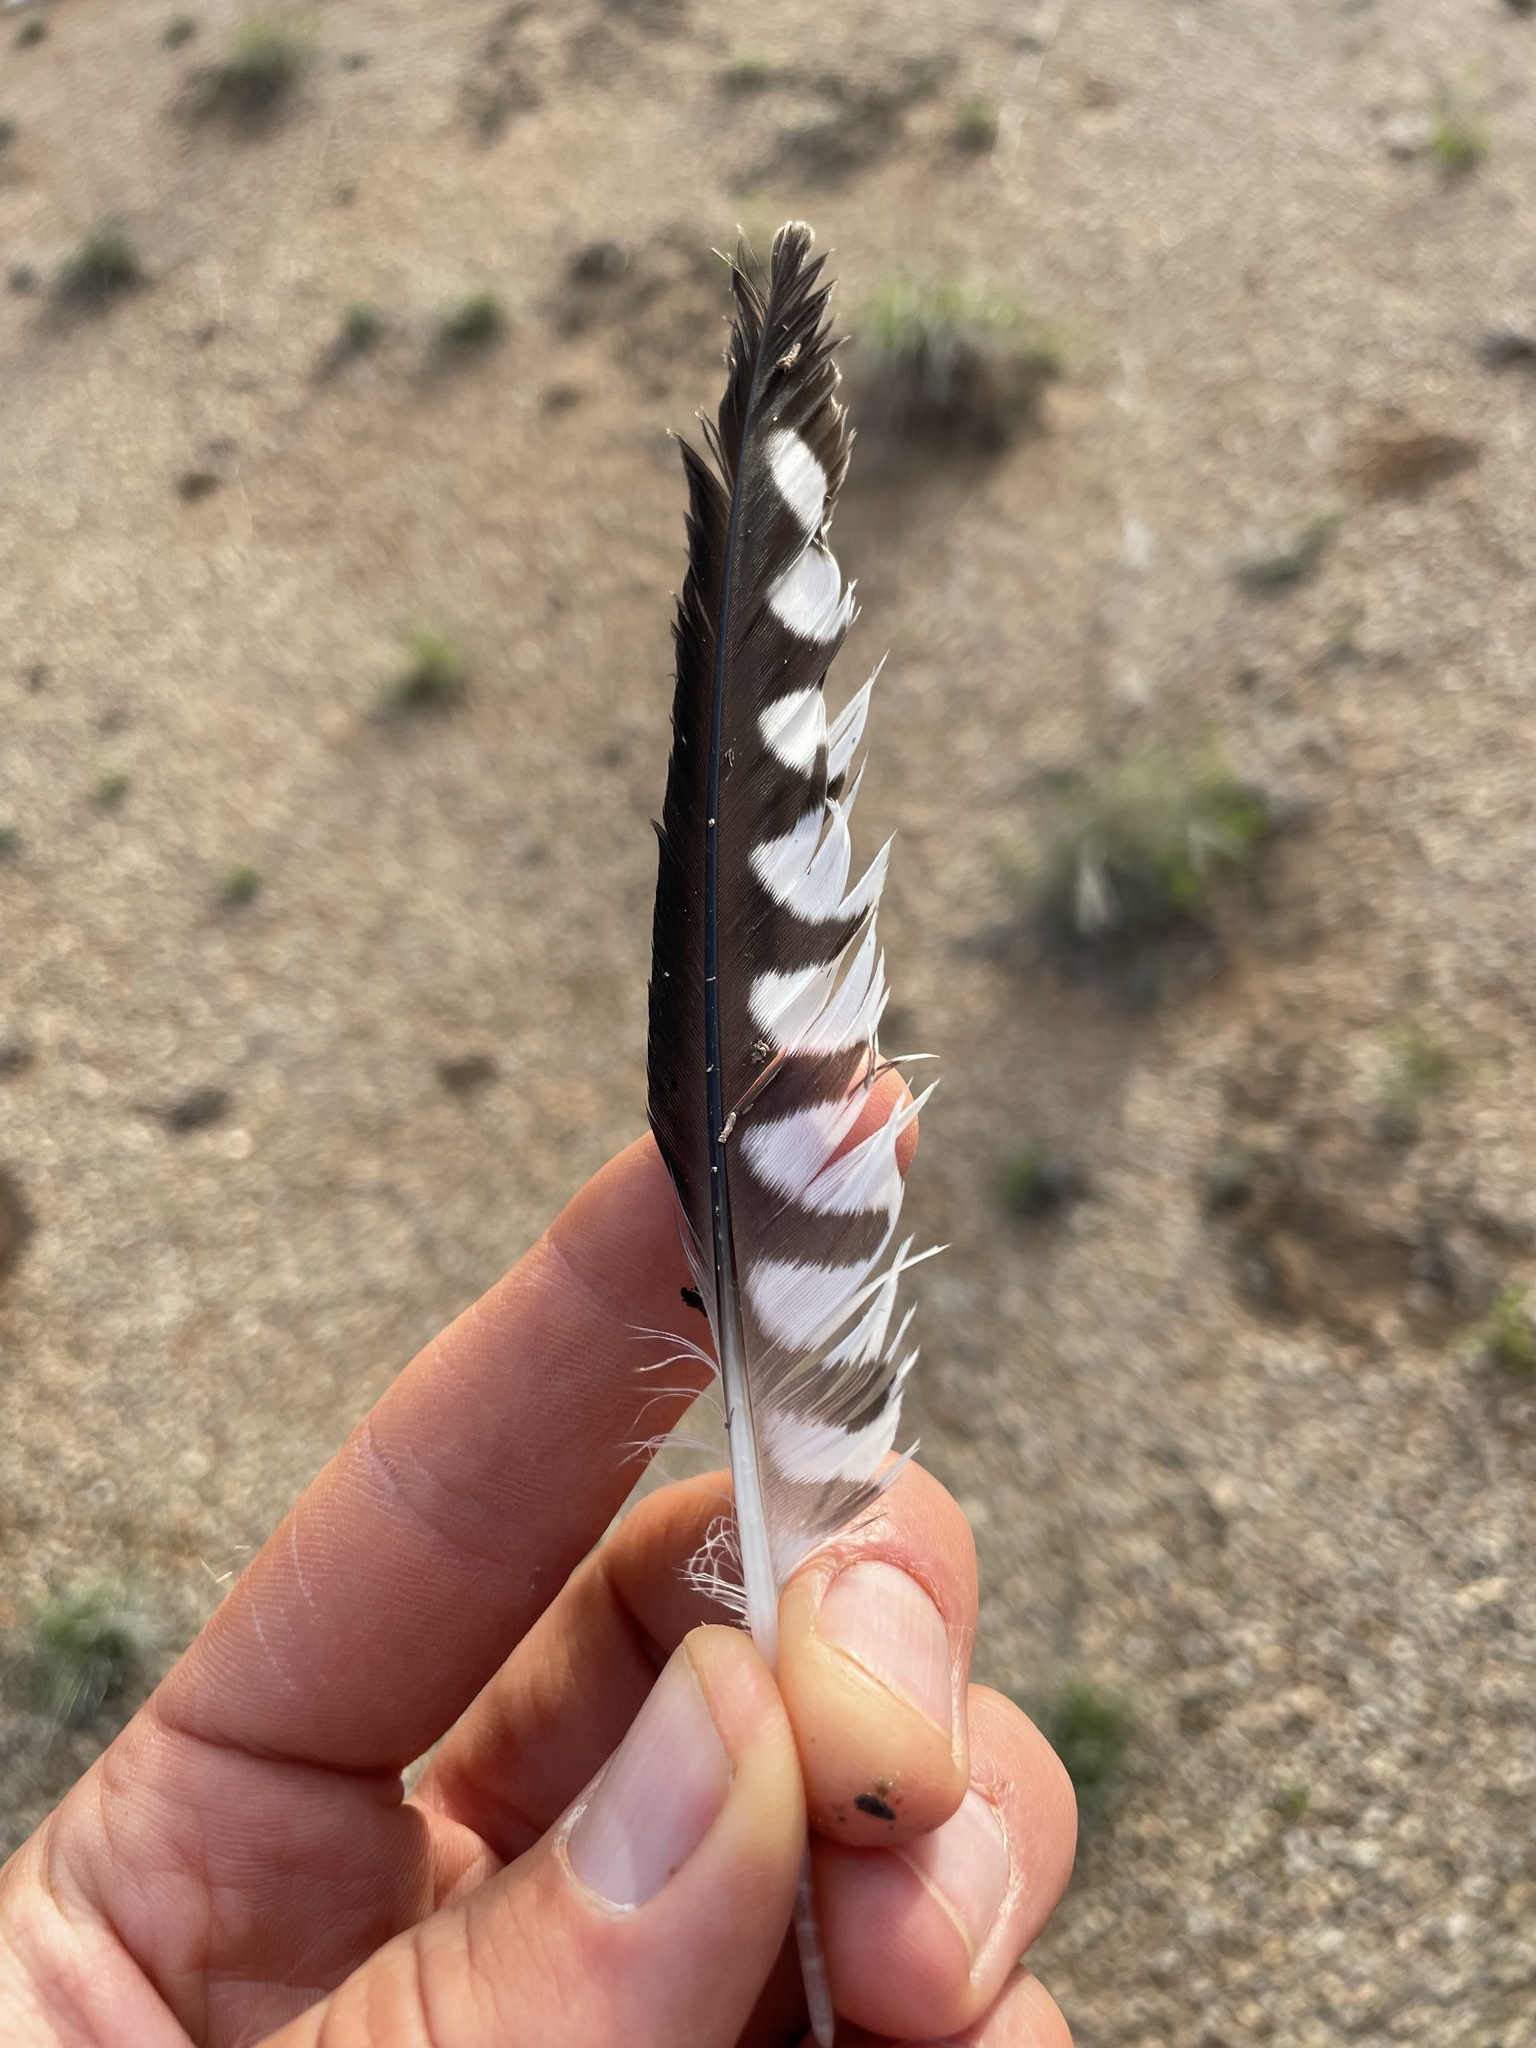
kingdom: Animalia
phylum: Chordata
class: Aves
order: Falconiformes
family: Falconidae
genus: Falco
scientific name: Falco sparverius
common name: American kestrel
